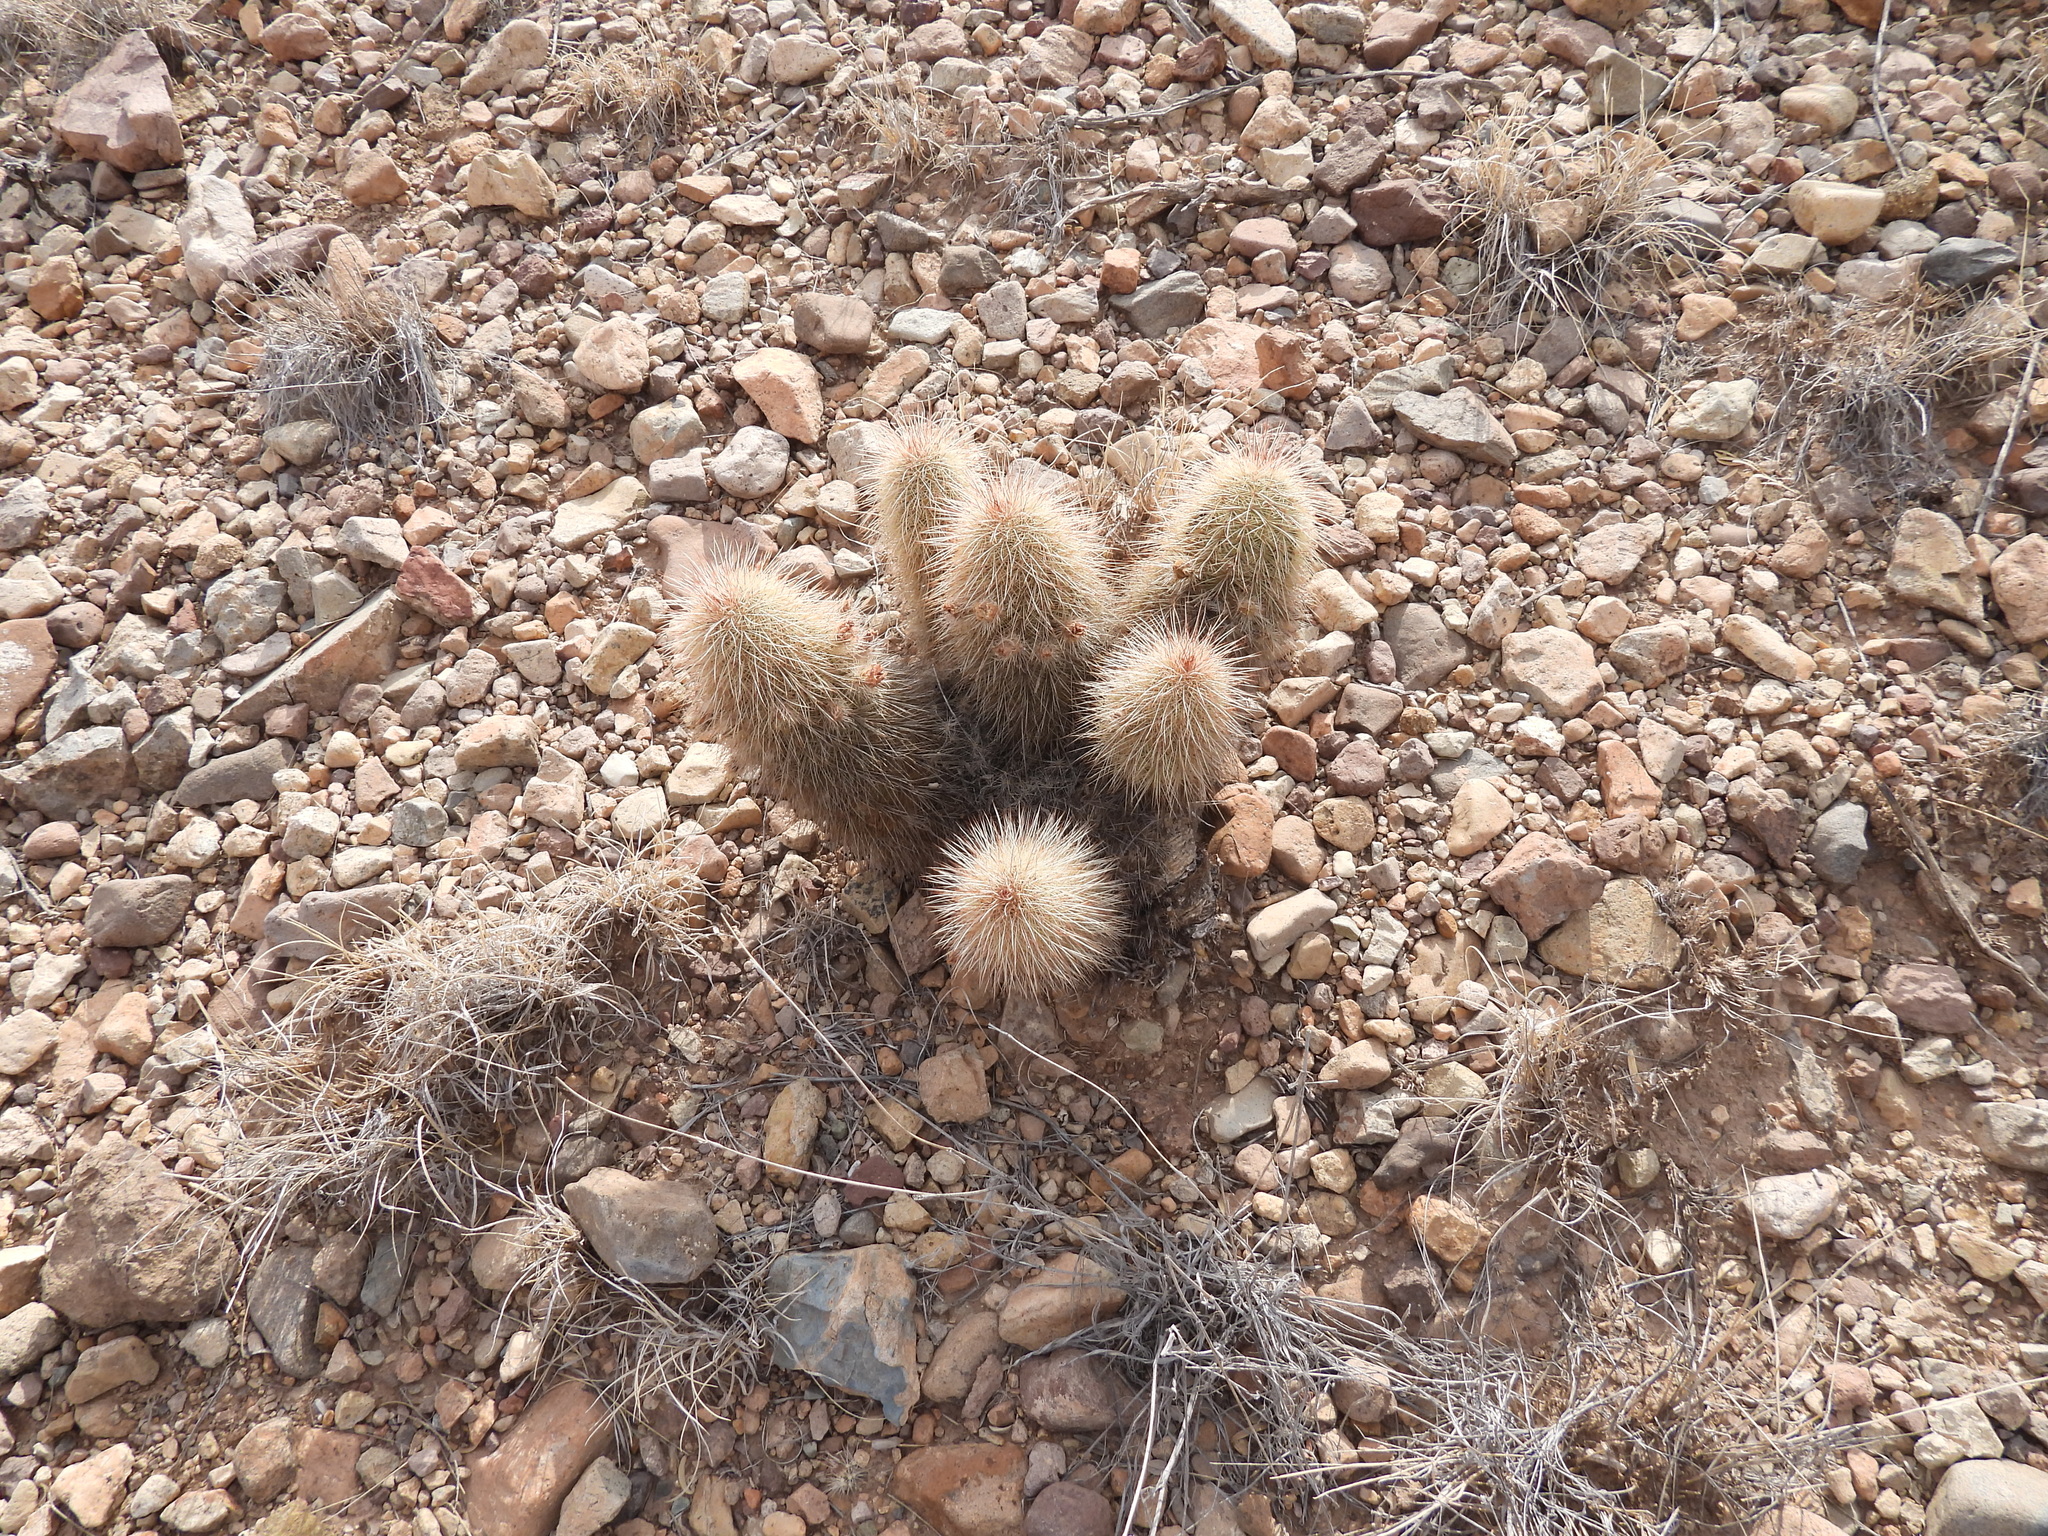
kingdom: Plantae
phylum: Tracheophyta
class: Magnoliopsida
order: Caryophyllales
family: Cactaceae
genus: Echinocereus
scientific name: Echinocereus russanthus
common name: Brownspine hedgehog cactus
